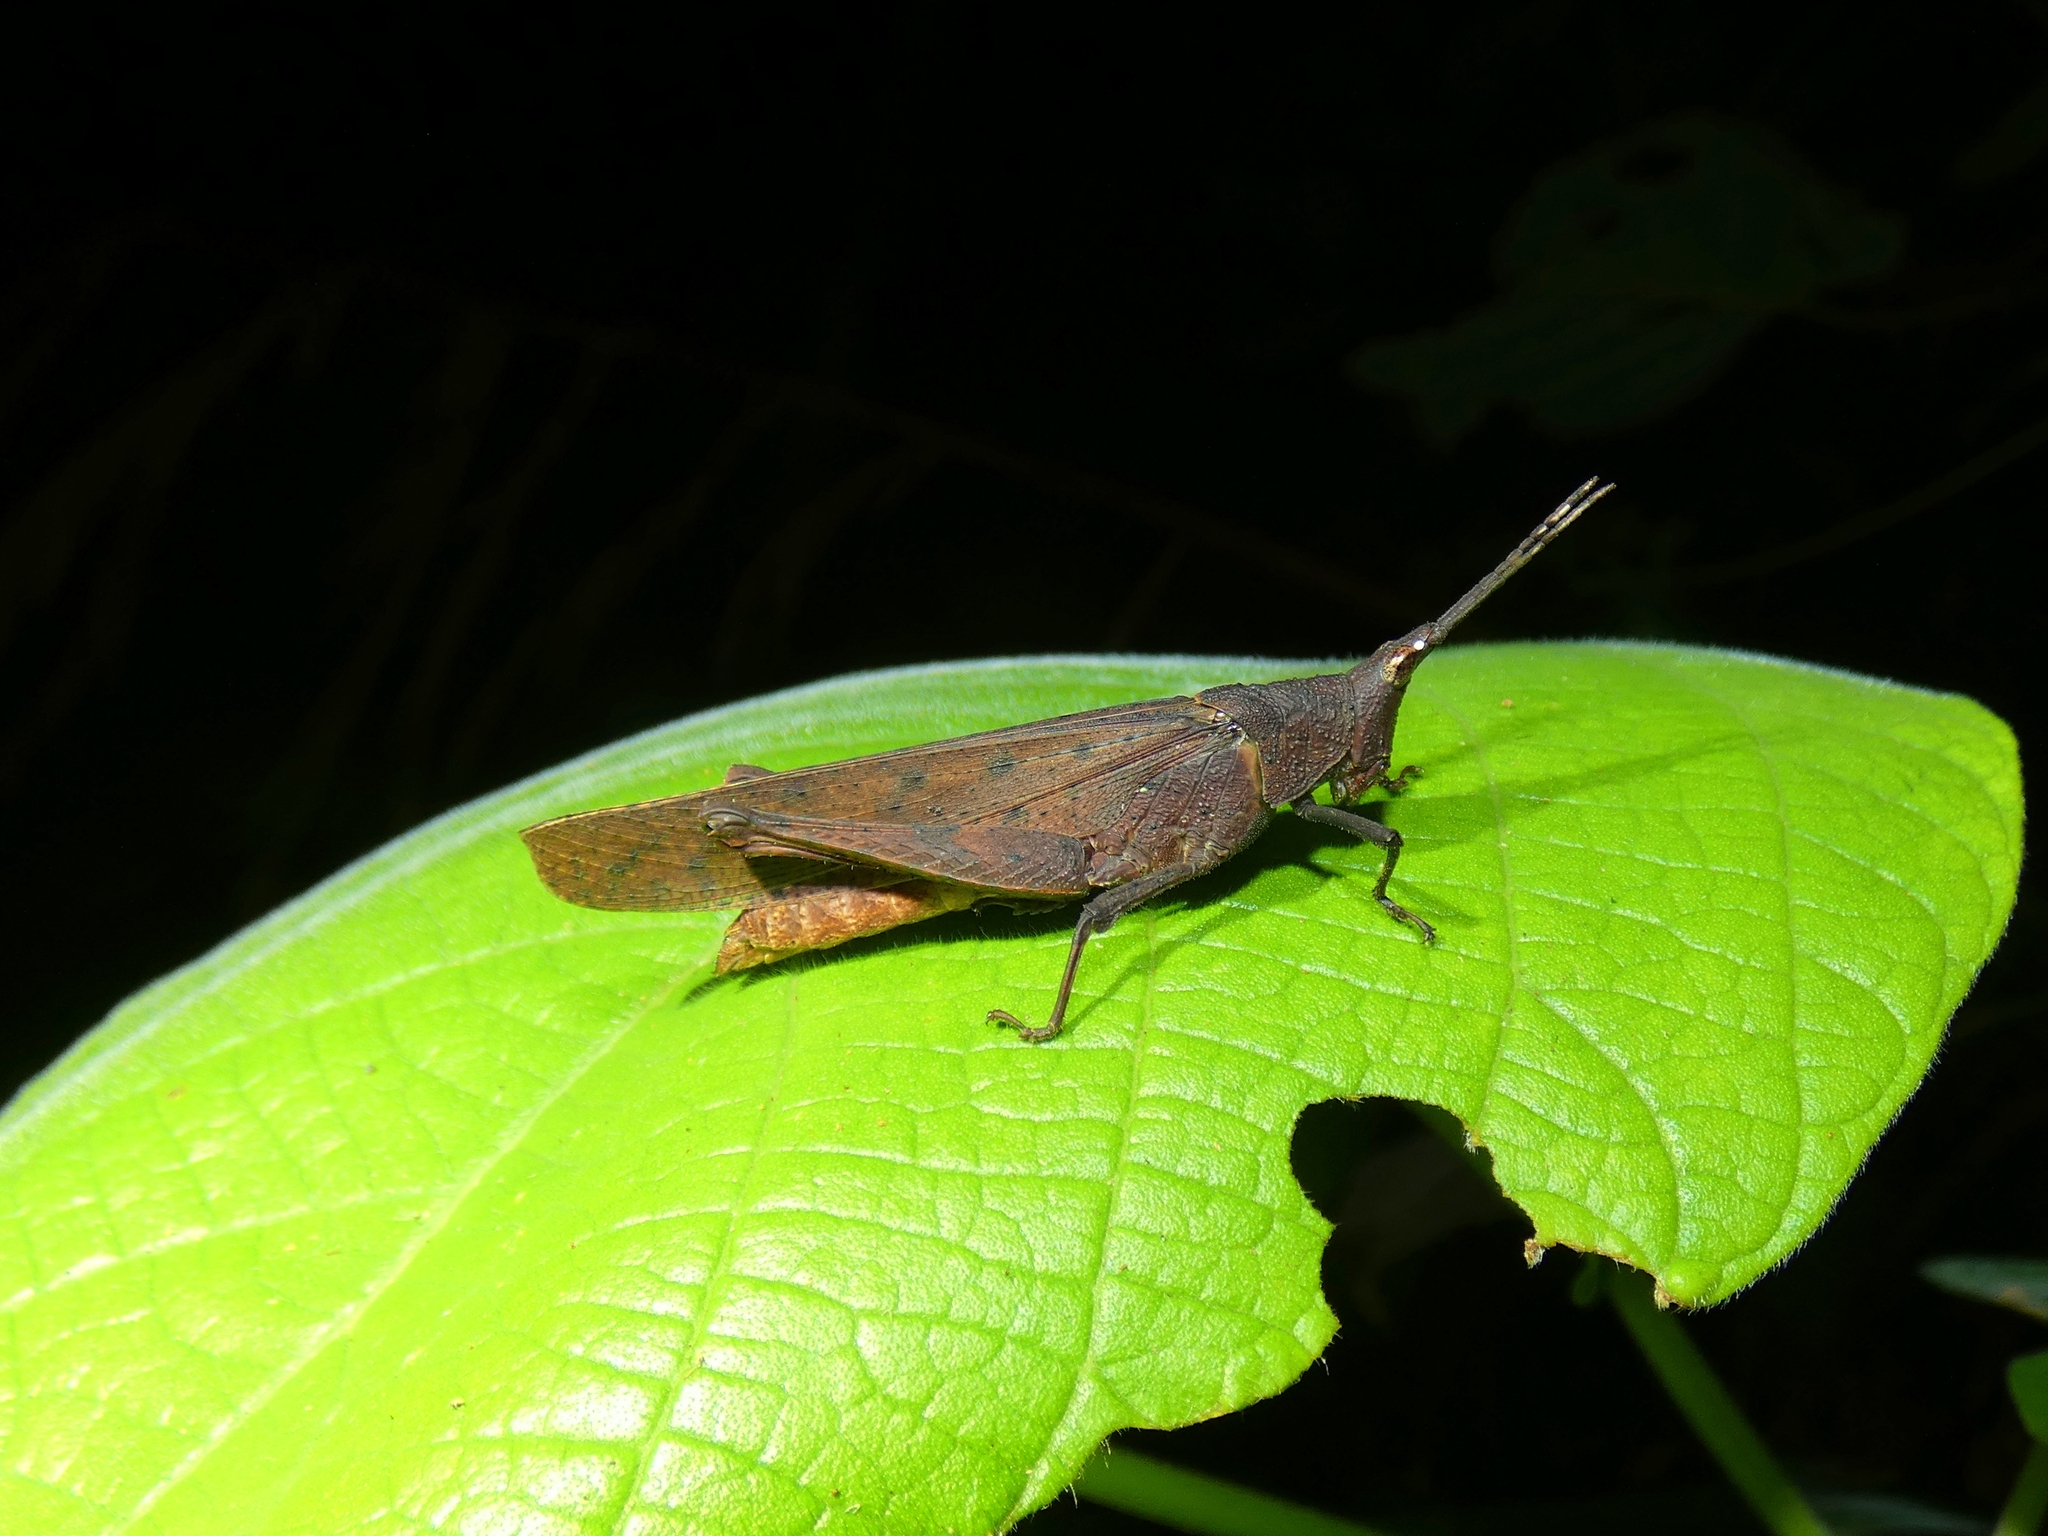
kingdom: Animalia
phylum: Arthropoda
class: Insecta
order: Orthoptera
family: Pyrgomorphidae
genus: Desmoptera
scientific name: Desmoptera truncatipennis
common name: Large forest pyrgomorph
